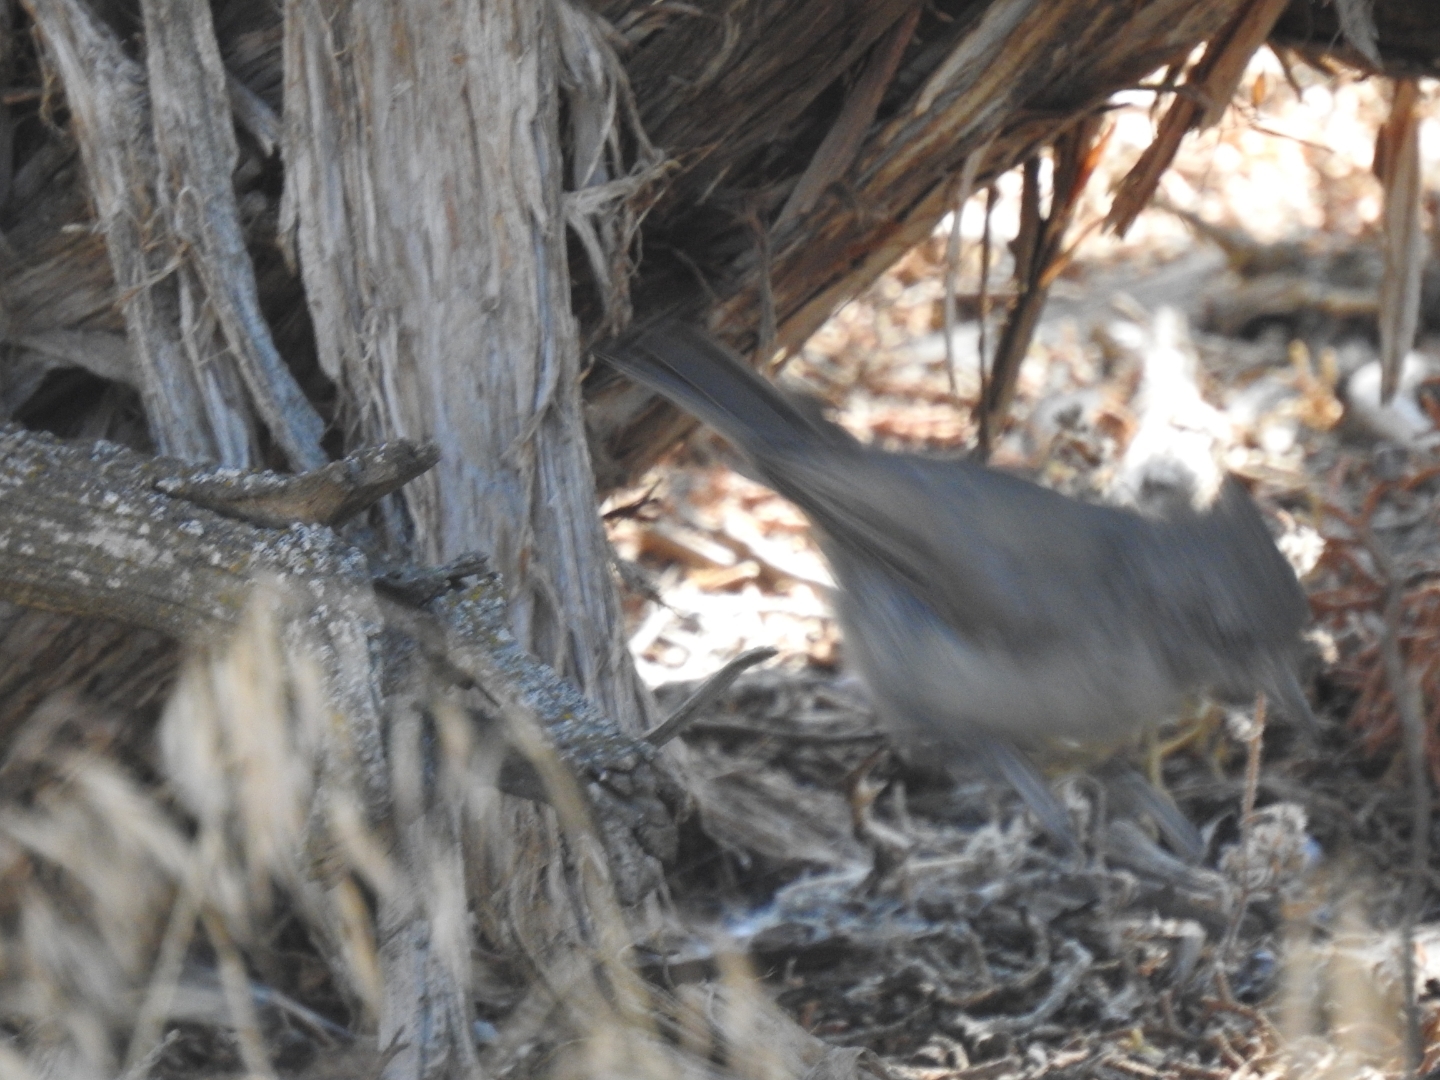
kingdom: Animalia
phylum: Chordata
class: Aves
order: Passeriformes
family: Paridae
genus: Baeolophus
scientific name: Baeolophus ridgwayi
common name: Juniper titmouse
